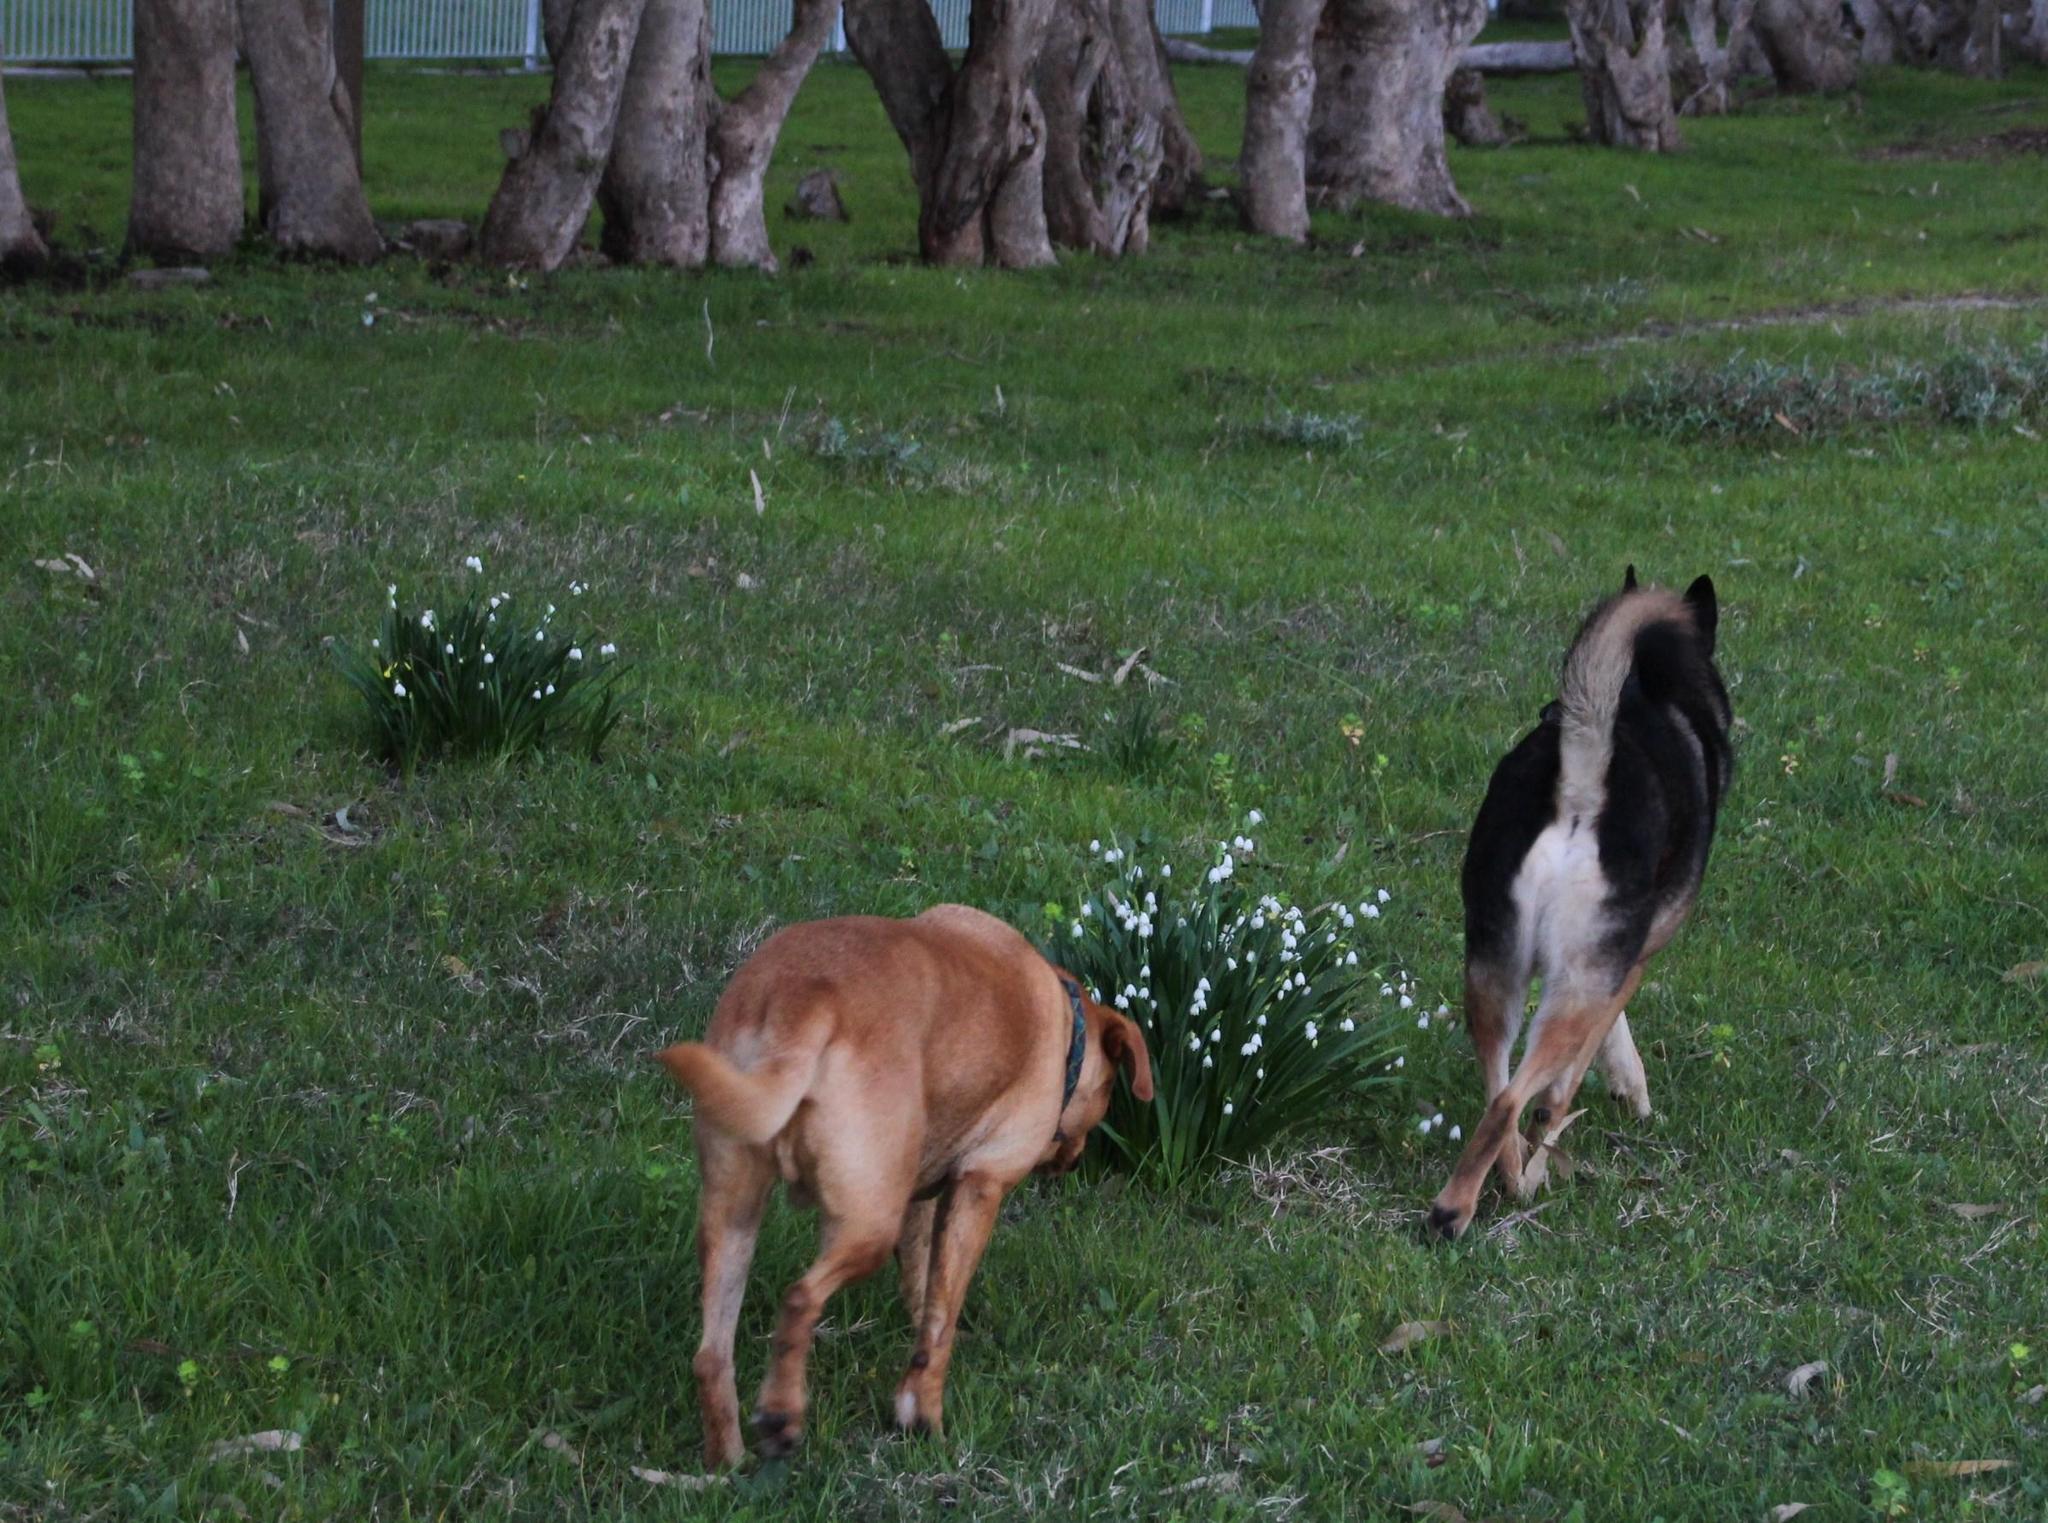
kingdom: Plantae
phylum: Tracheophyta
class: Liliopsida
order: Asparagales
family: Amaryllidaceae
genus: Leucojum
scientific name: Leucojum aestivum
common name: Summer snowflake
